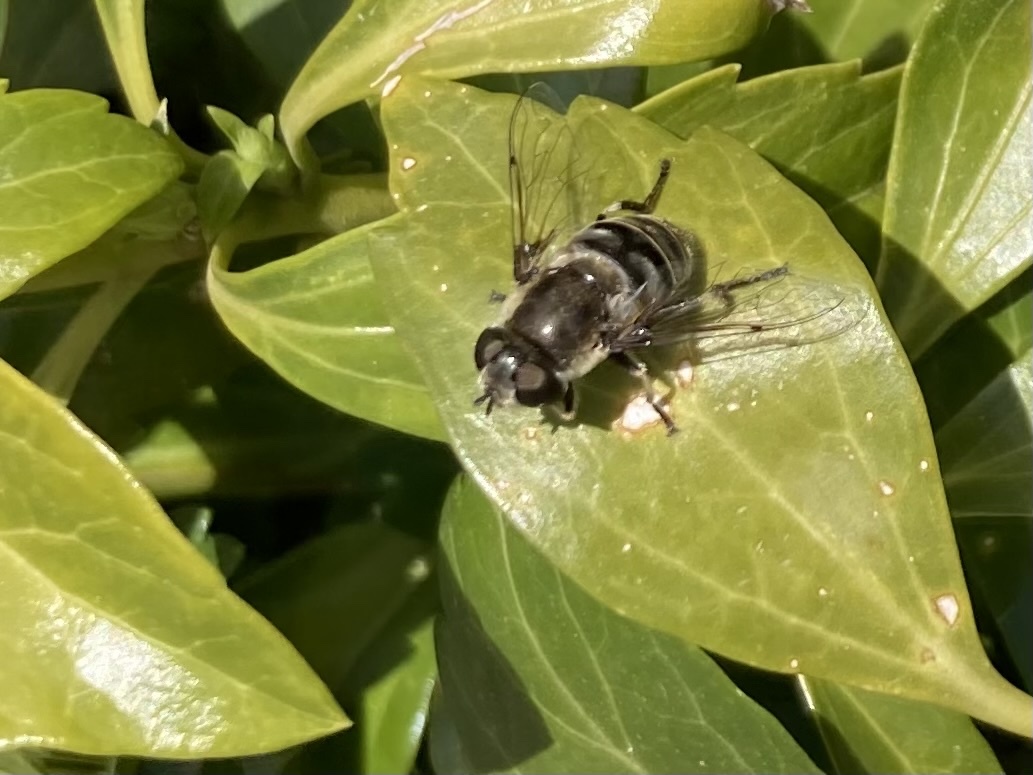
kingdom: Animalia
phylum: Arthropoda
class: Insecta
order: Diptera
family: Syrphidae
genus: Eristalis
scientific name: Eristalis dimidiata
